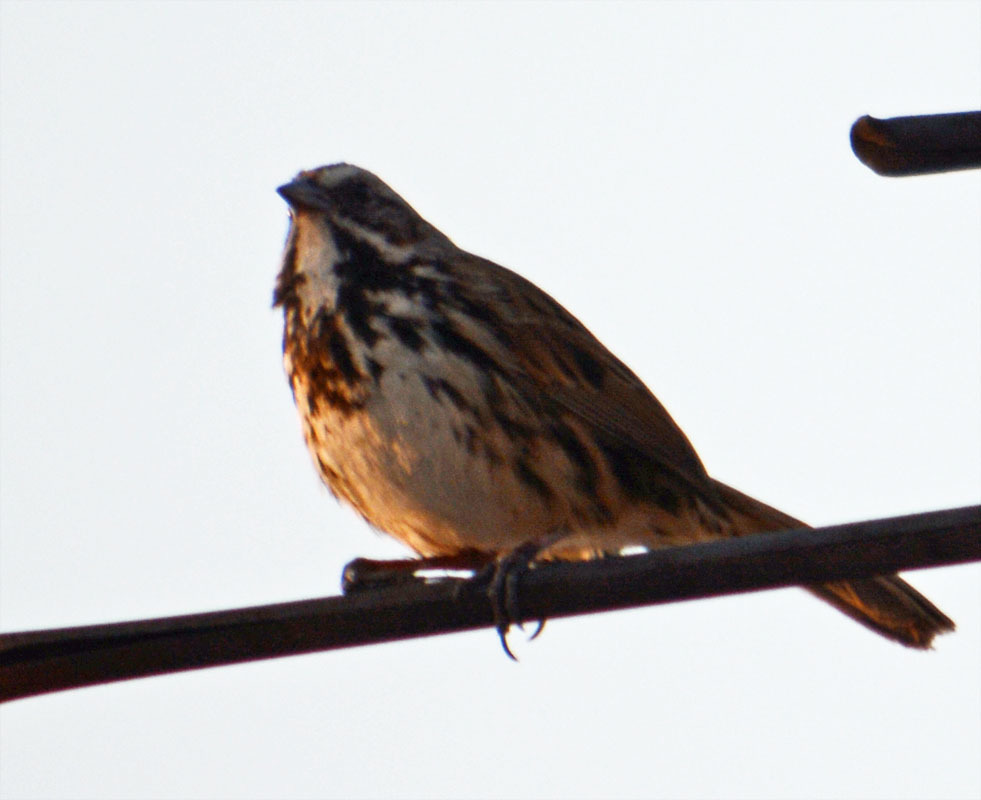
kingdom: Animalia
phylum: Chordata
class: Aves
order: Passeriformes
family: Passerellidae
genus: Melospiza
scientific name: Melospiza melodia
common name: Song sparrow
